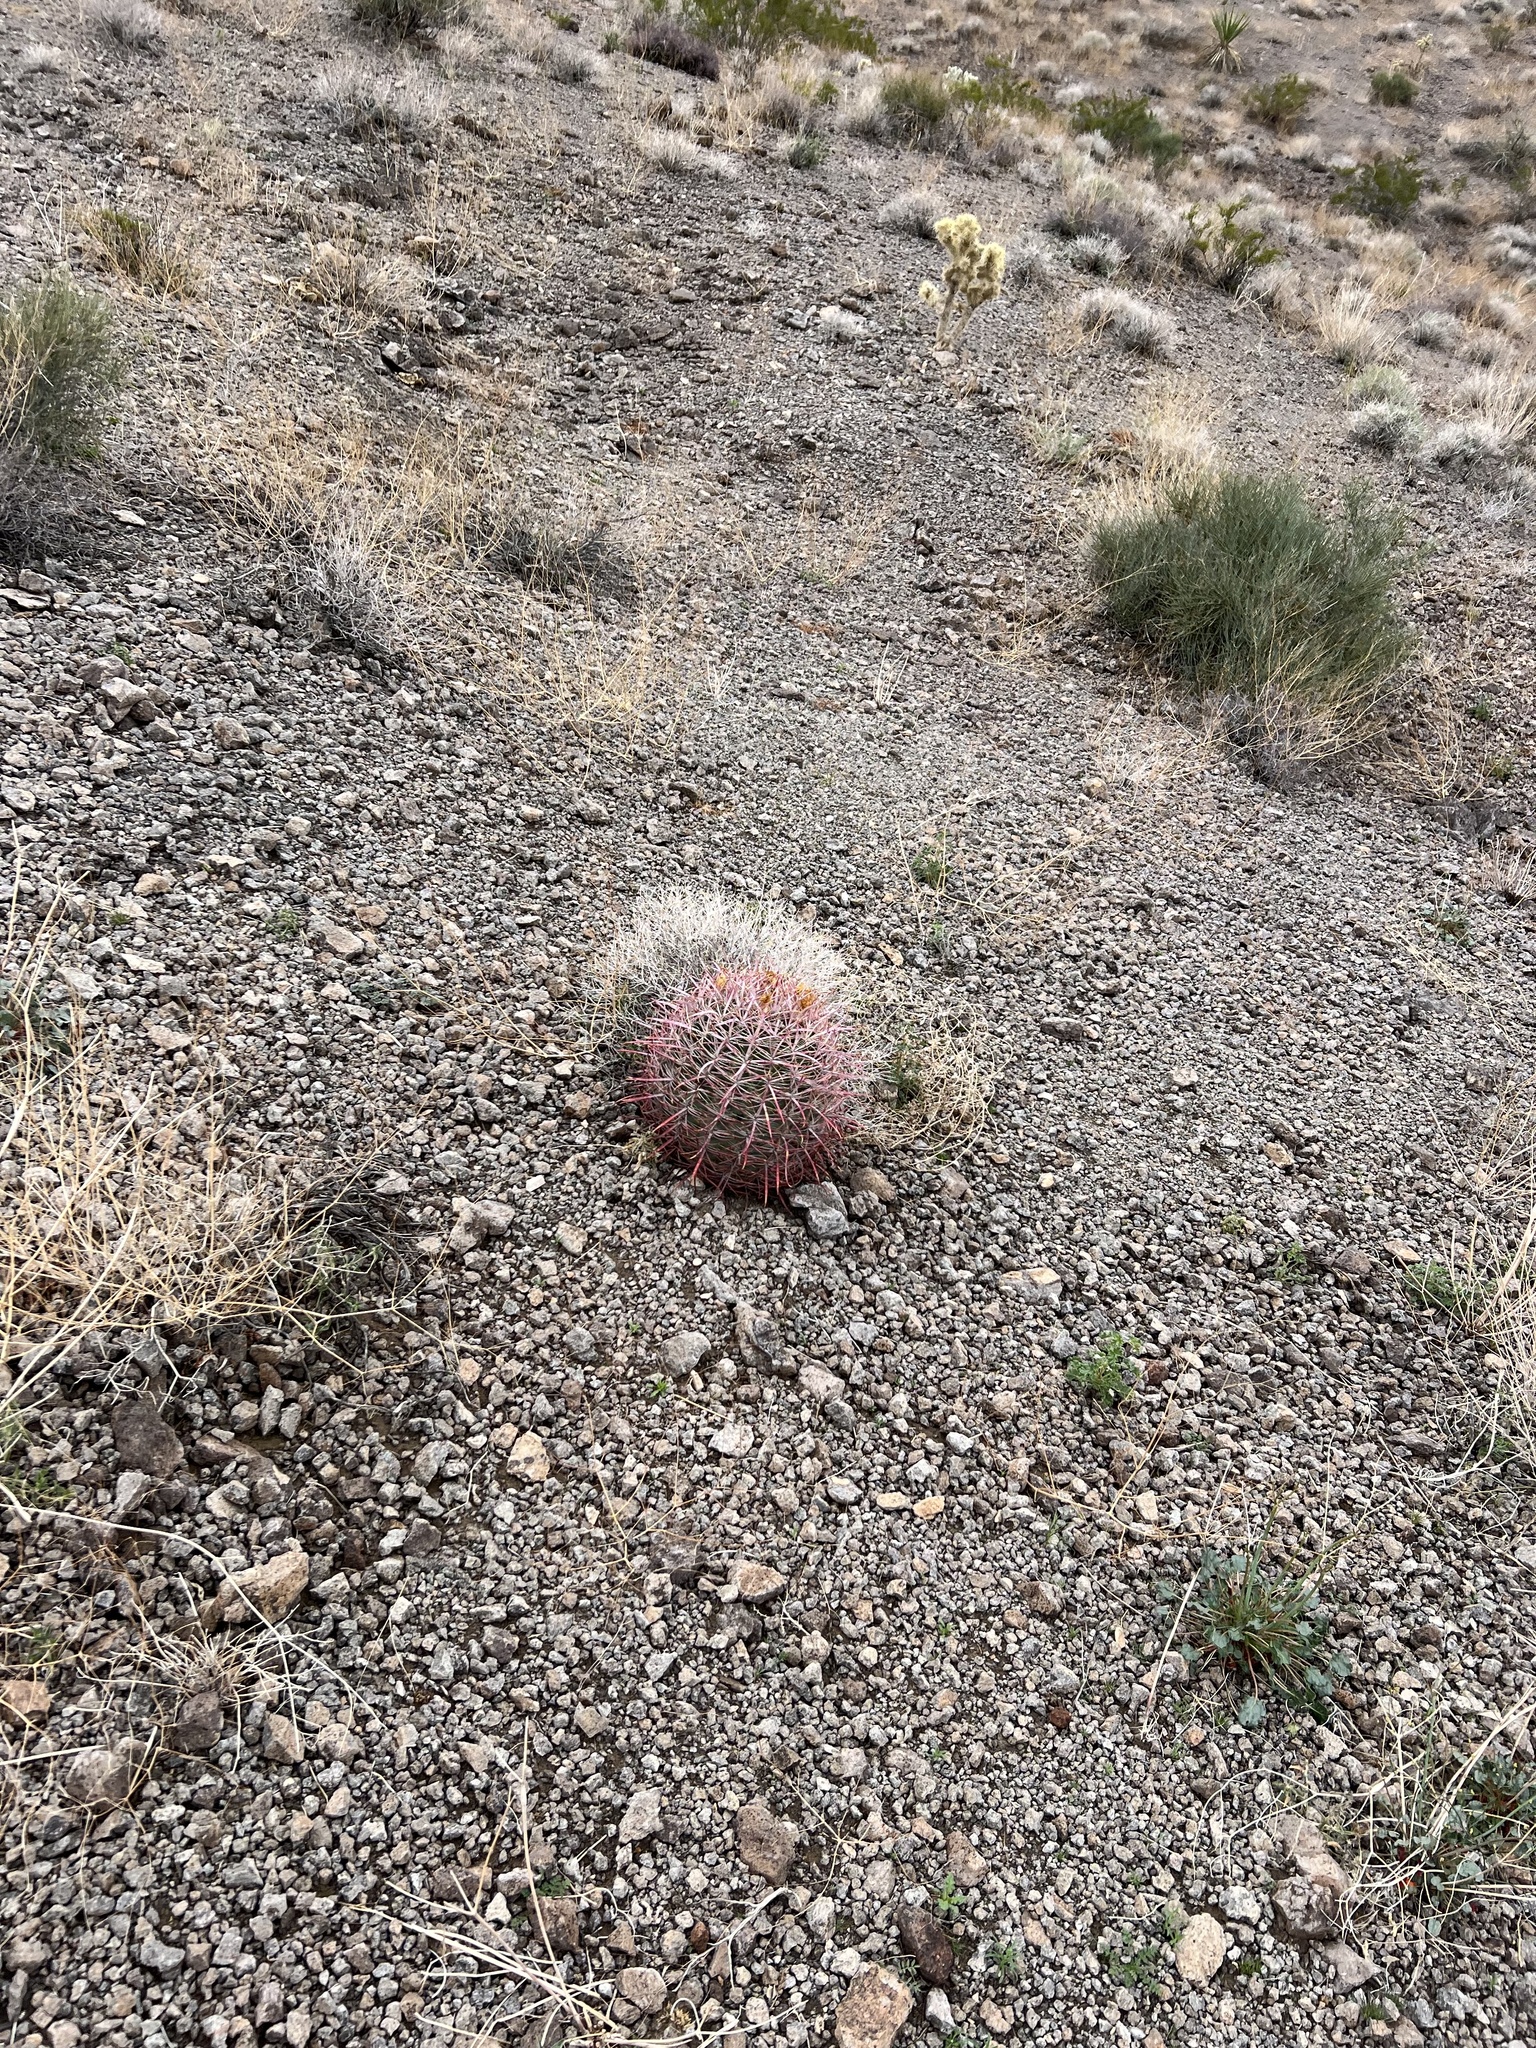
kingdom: Plantae
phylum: Tracheophyta
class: Magnoliopsida
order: Caryophyllales
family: Cactaceae
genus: Ferocactus
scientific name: Ferocactus cylindraceus
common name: California barrel cactus
